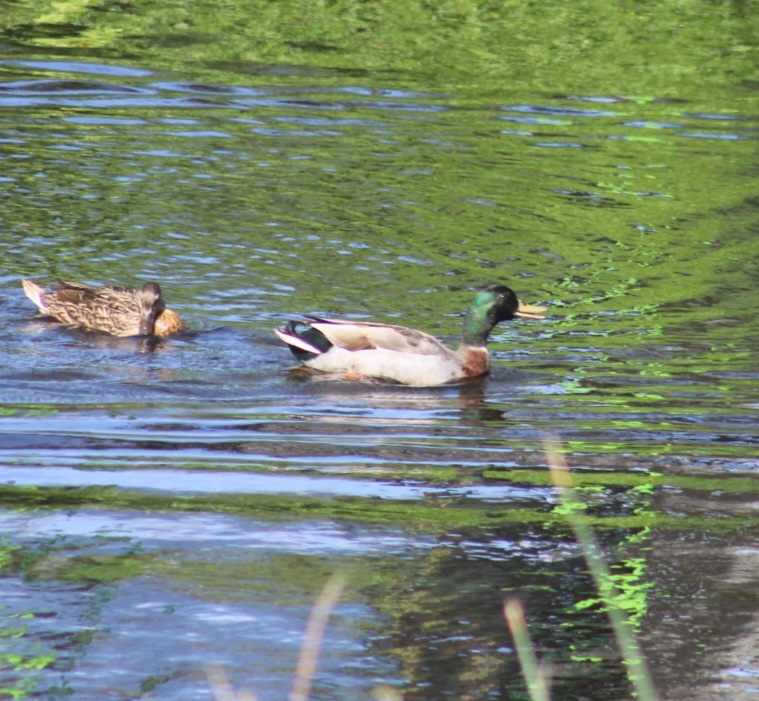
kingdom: Animalia
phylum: Chordata
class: Aves
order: Anseriformes
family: Anatidae
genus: Anas
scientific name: Anas platyrhynchos
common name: Mallard
